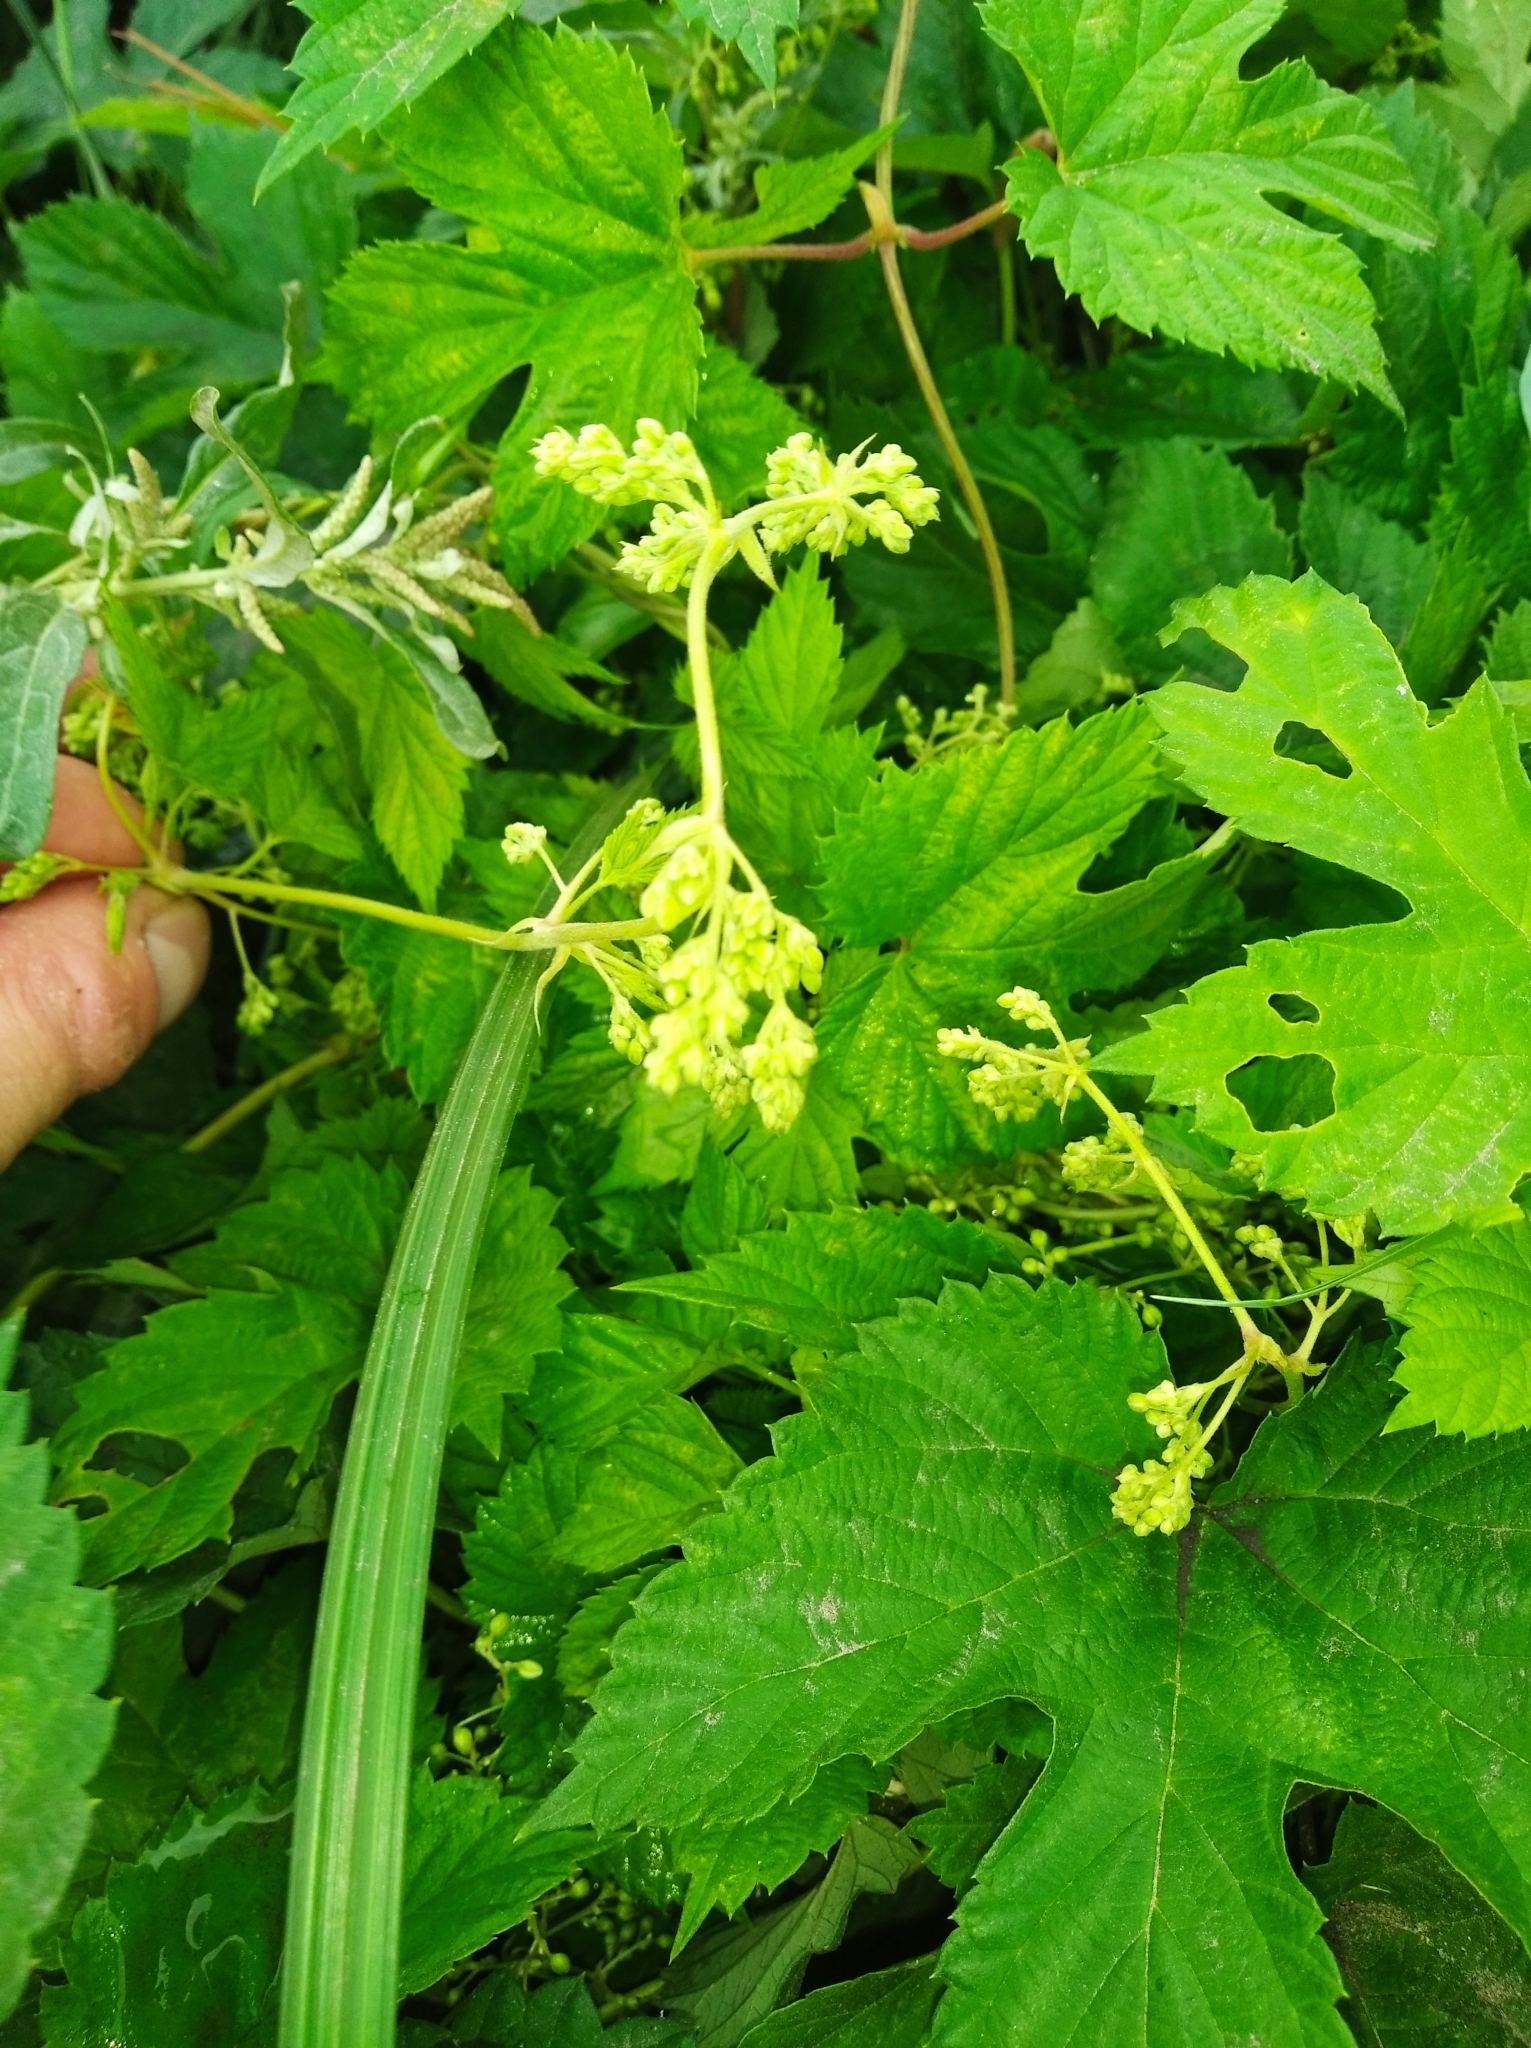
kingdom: Plantae
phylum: Tracheophyta
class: Magnoliopsida
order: Rosales
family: Cannabaceae
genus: Humulus
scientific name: Humulus lupulus
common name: Hop
